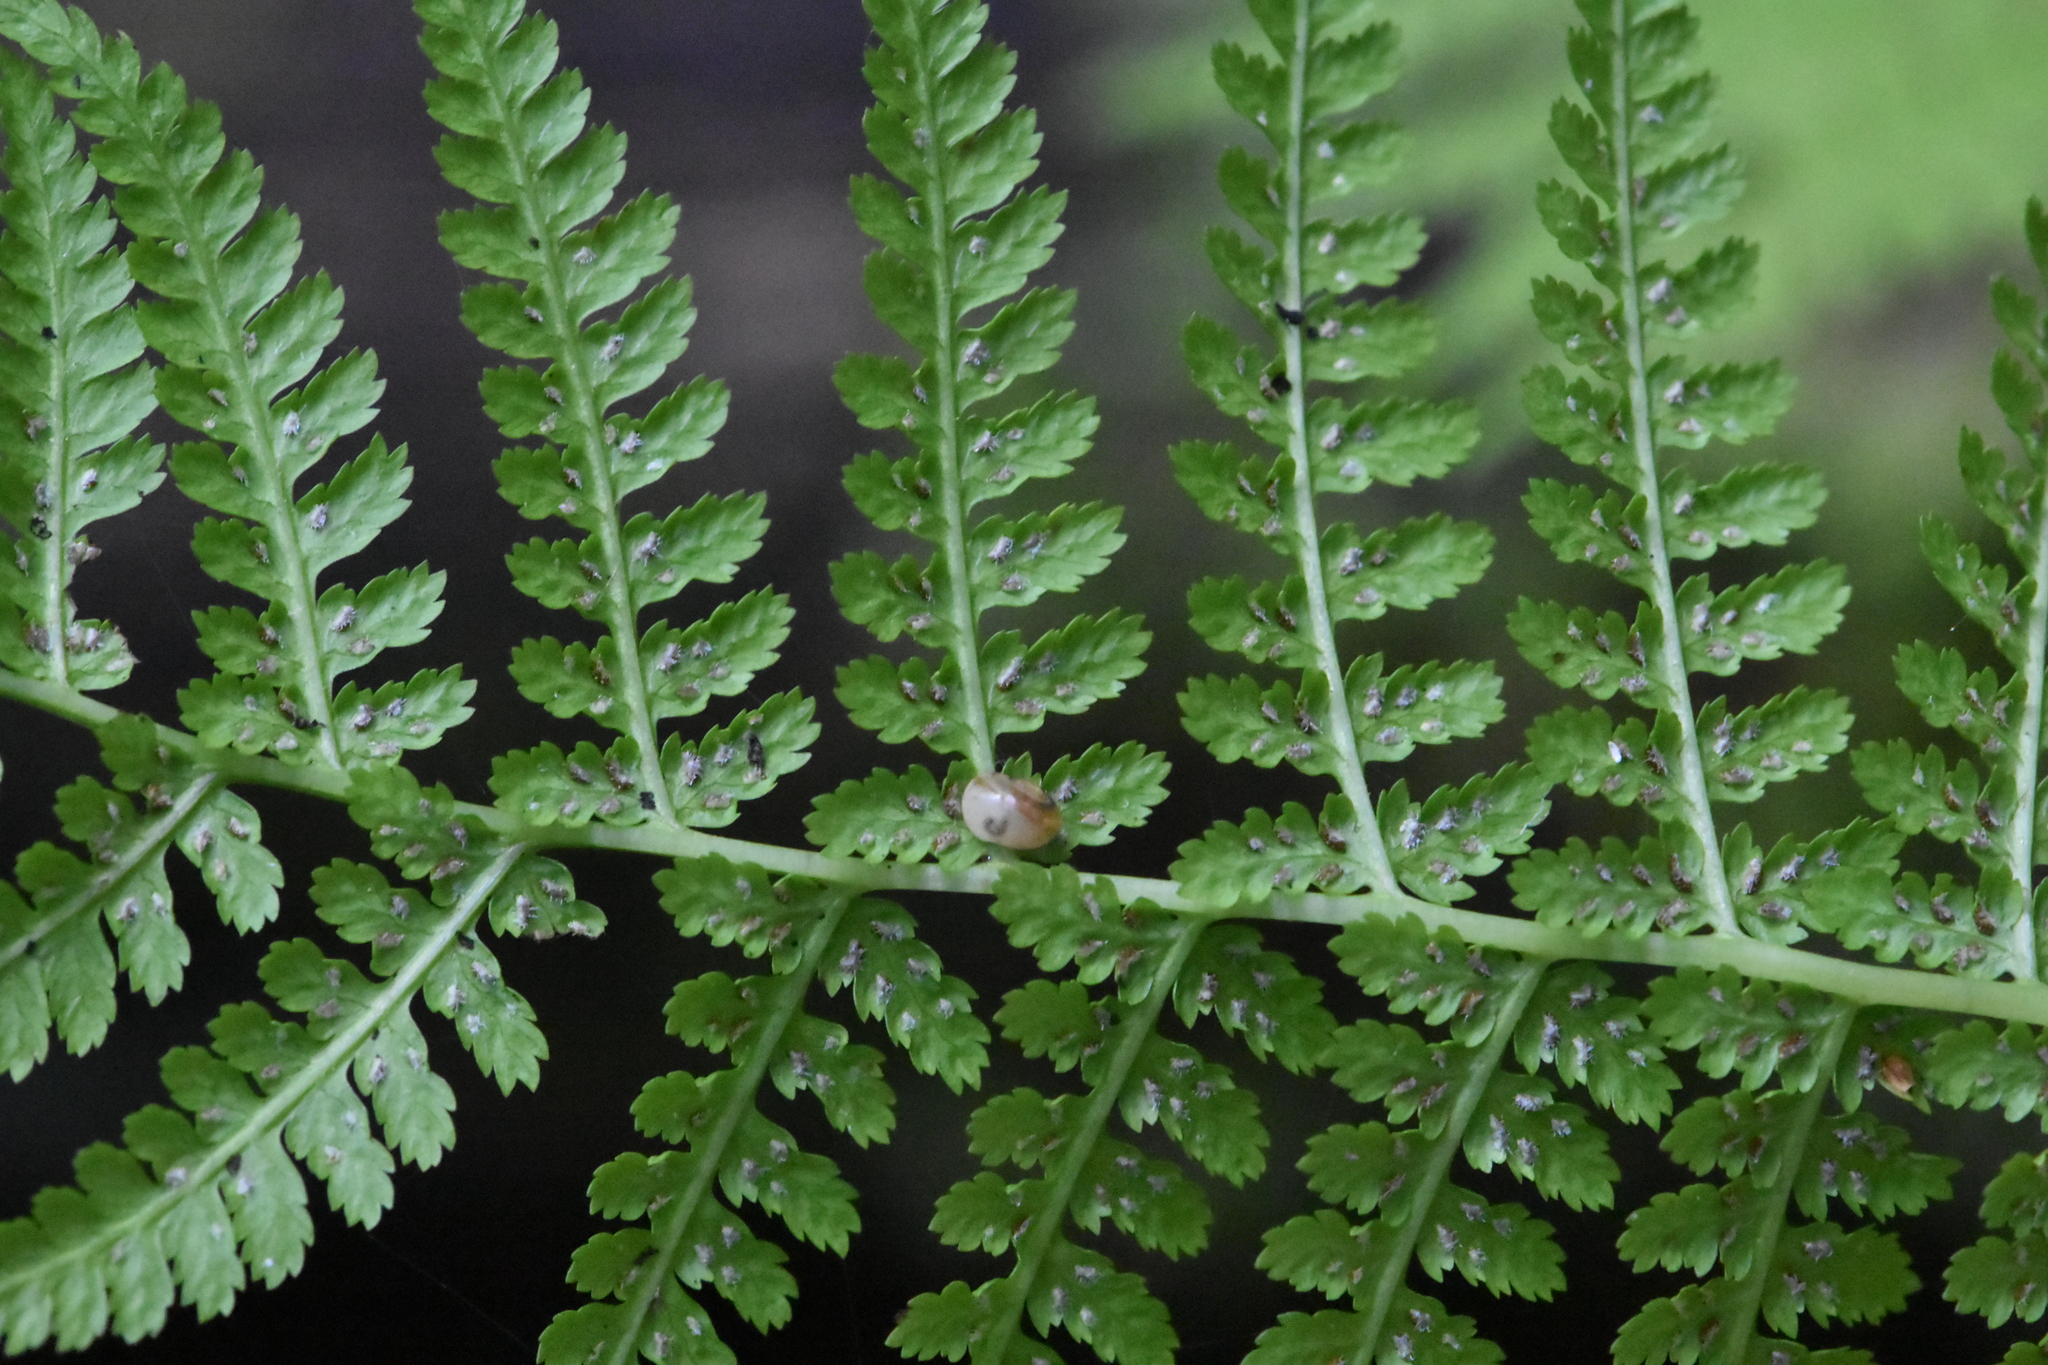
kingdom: Plantae
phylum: Tracheophyta
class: Polypodiopsida
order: Polypodiales
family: Athyriaceae
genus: Athyrium
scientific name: Athyrium filix-femina
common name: Lady fern
